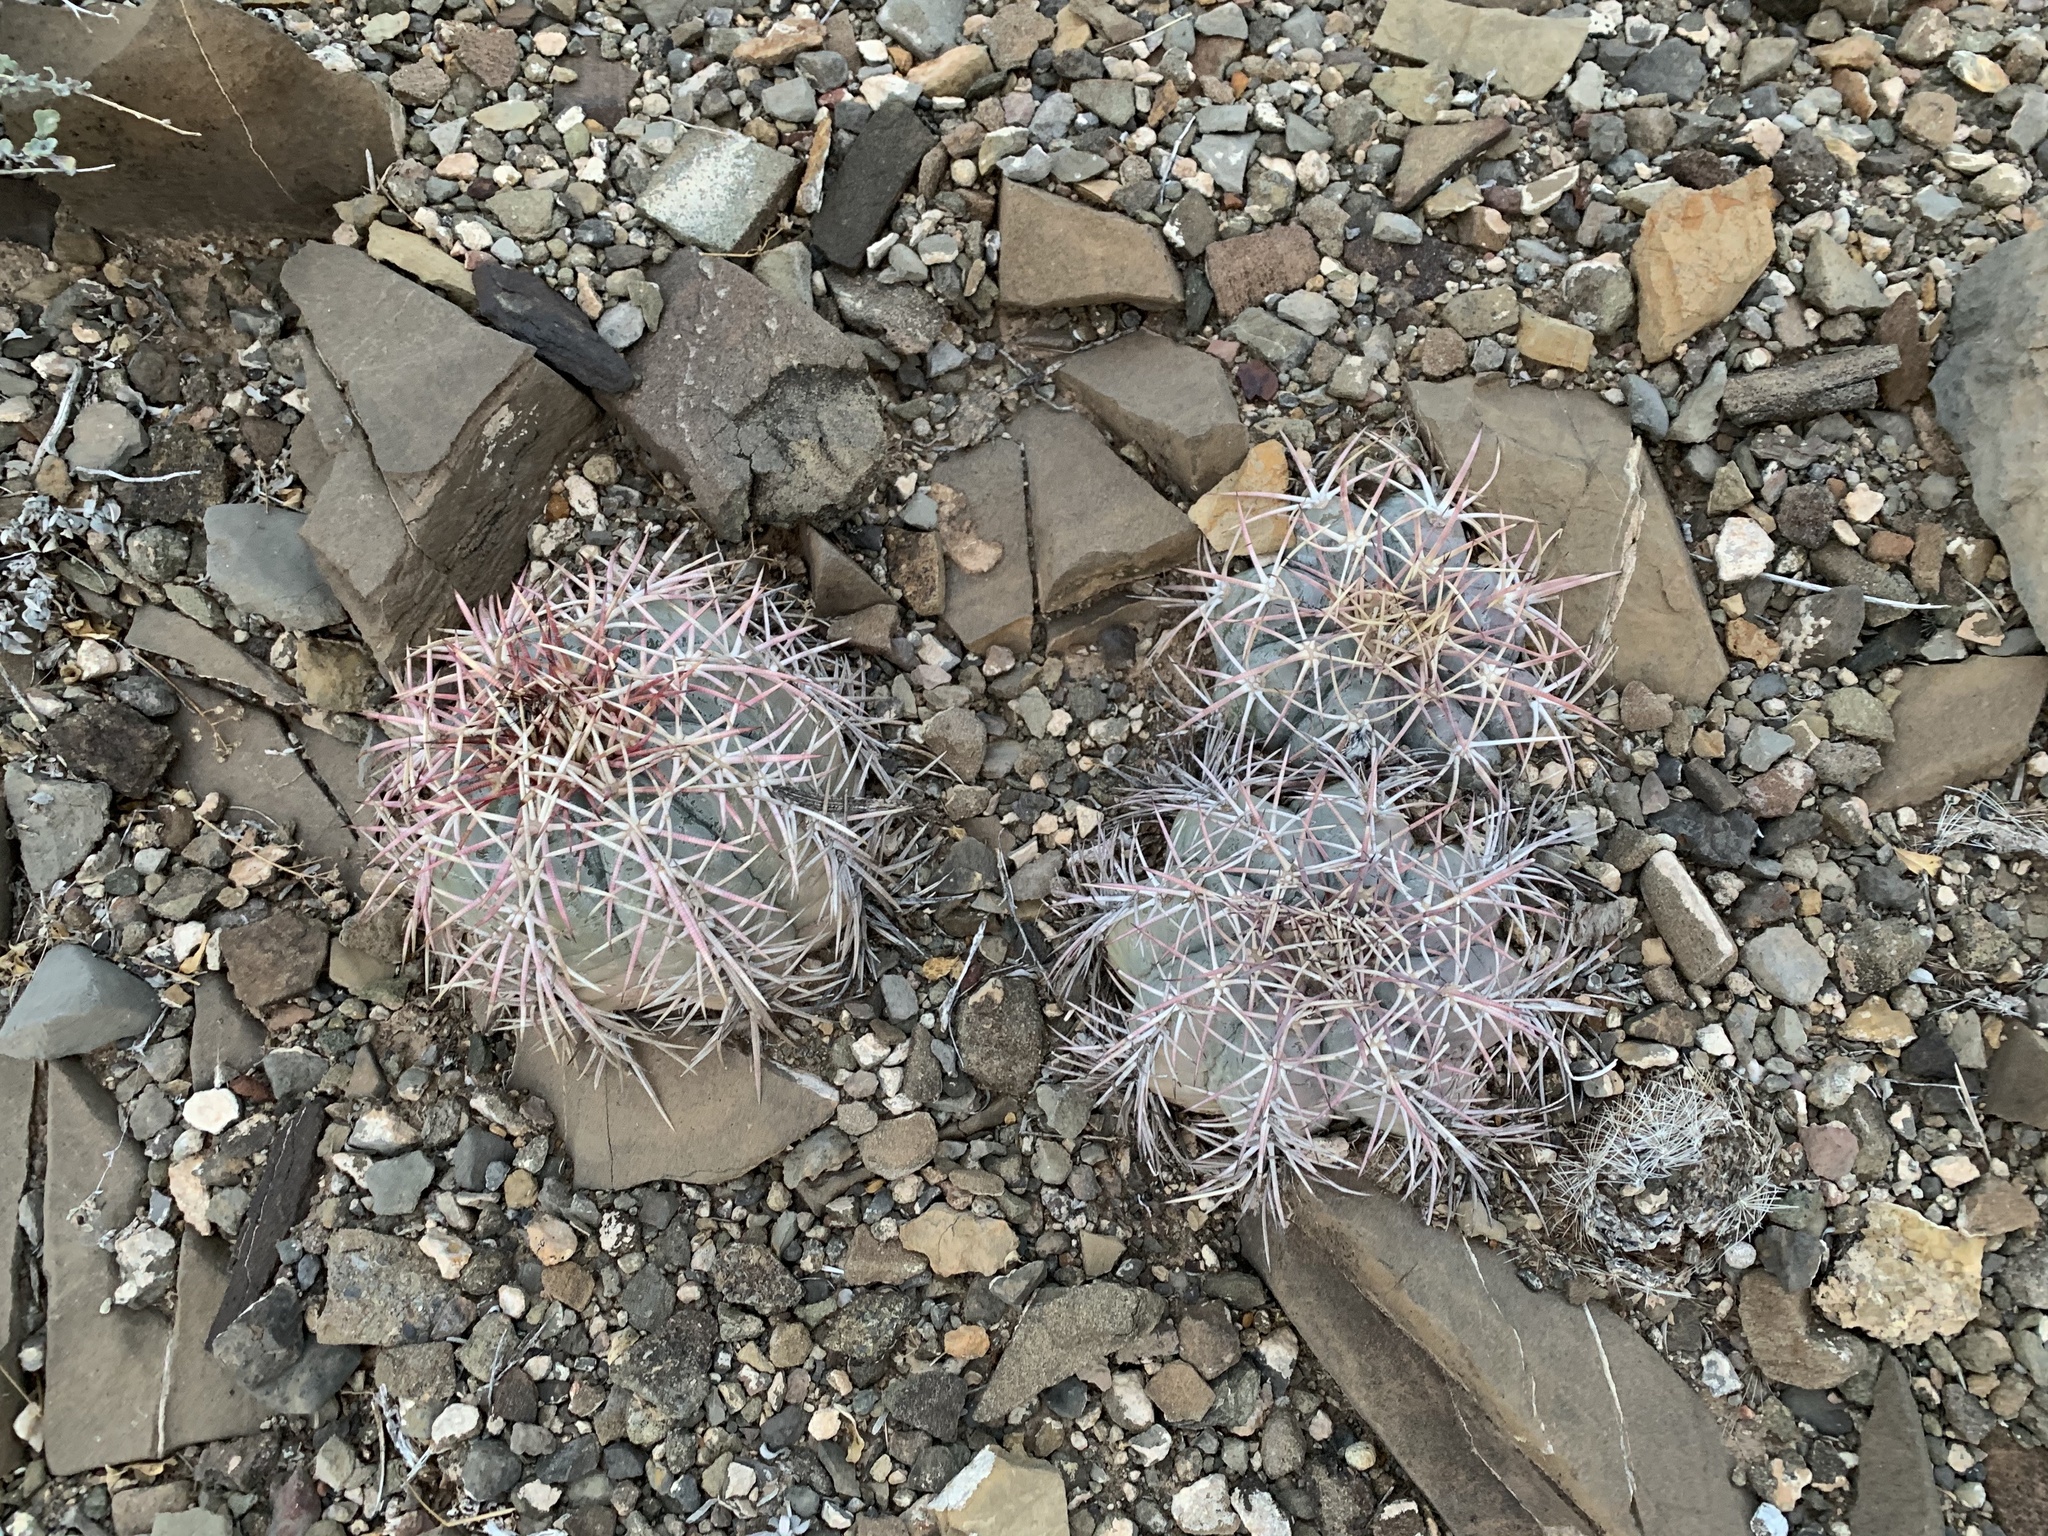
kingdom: Plantae
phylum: Tracheophyta
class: Magnoliopsida
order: Caryophyllales
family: Cactaceae
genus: Echinocactus
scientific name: Echinocactus horizonthalonius
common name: Devilshead
